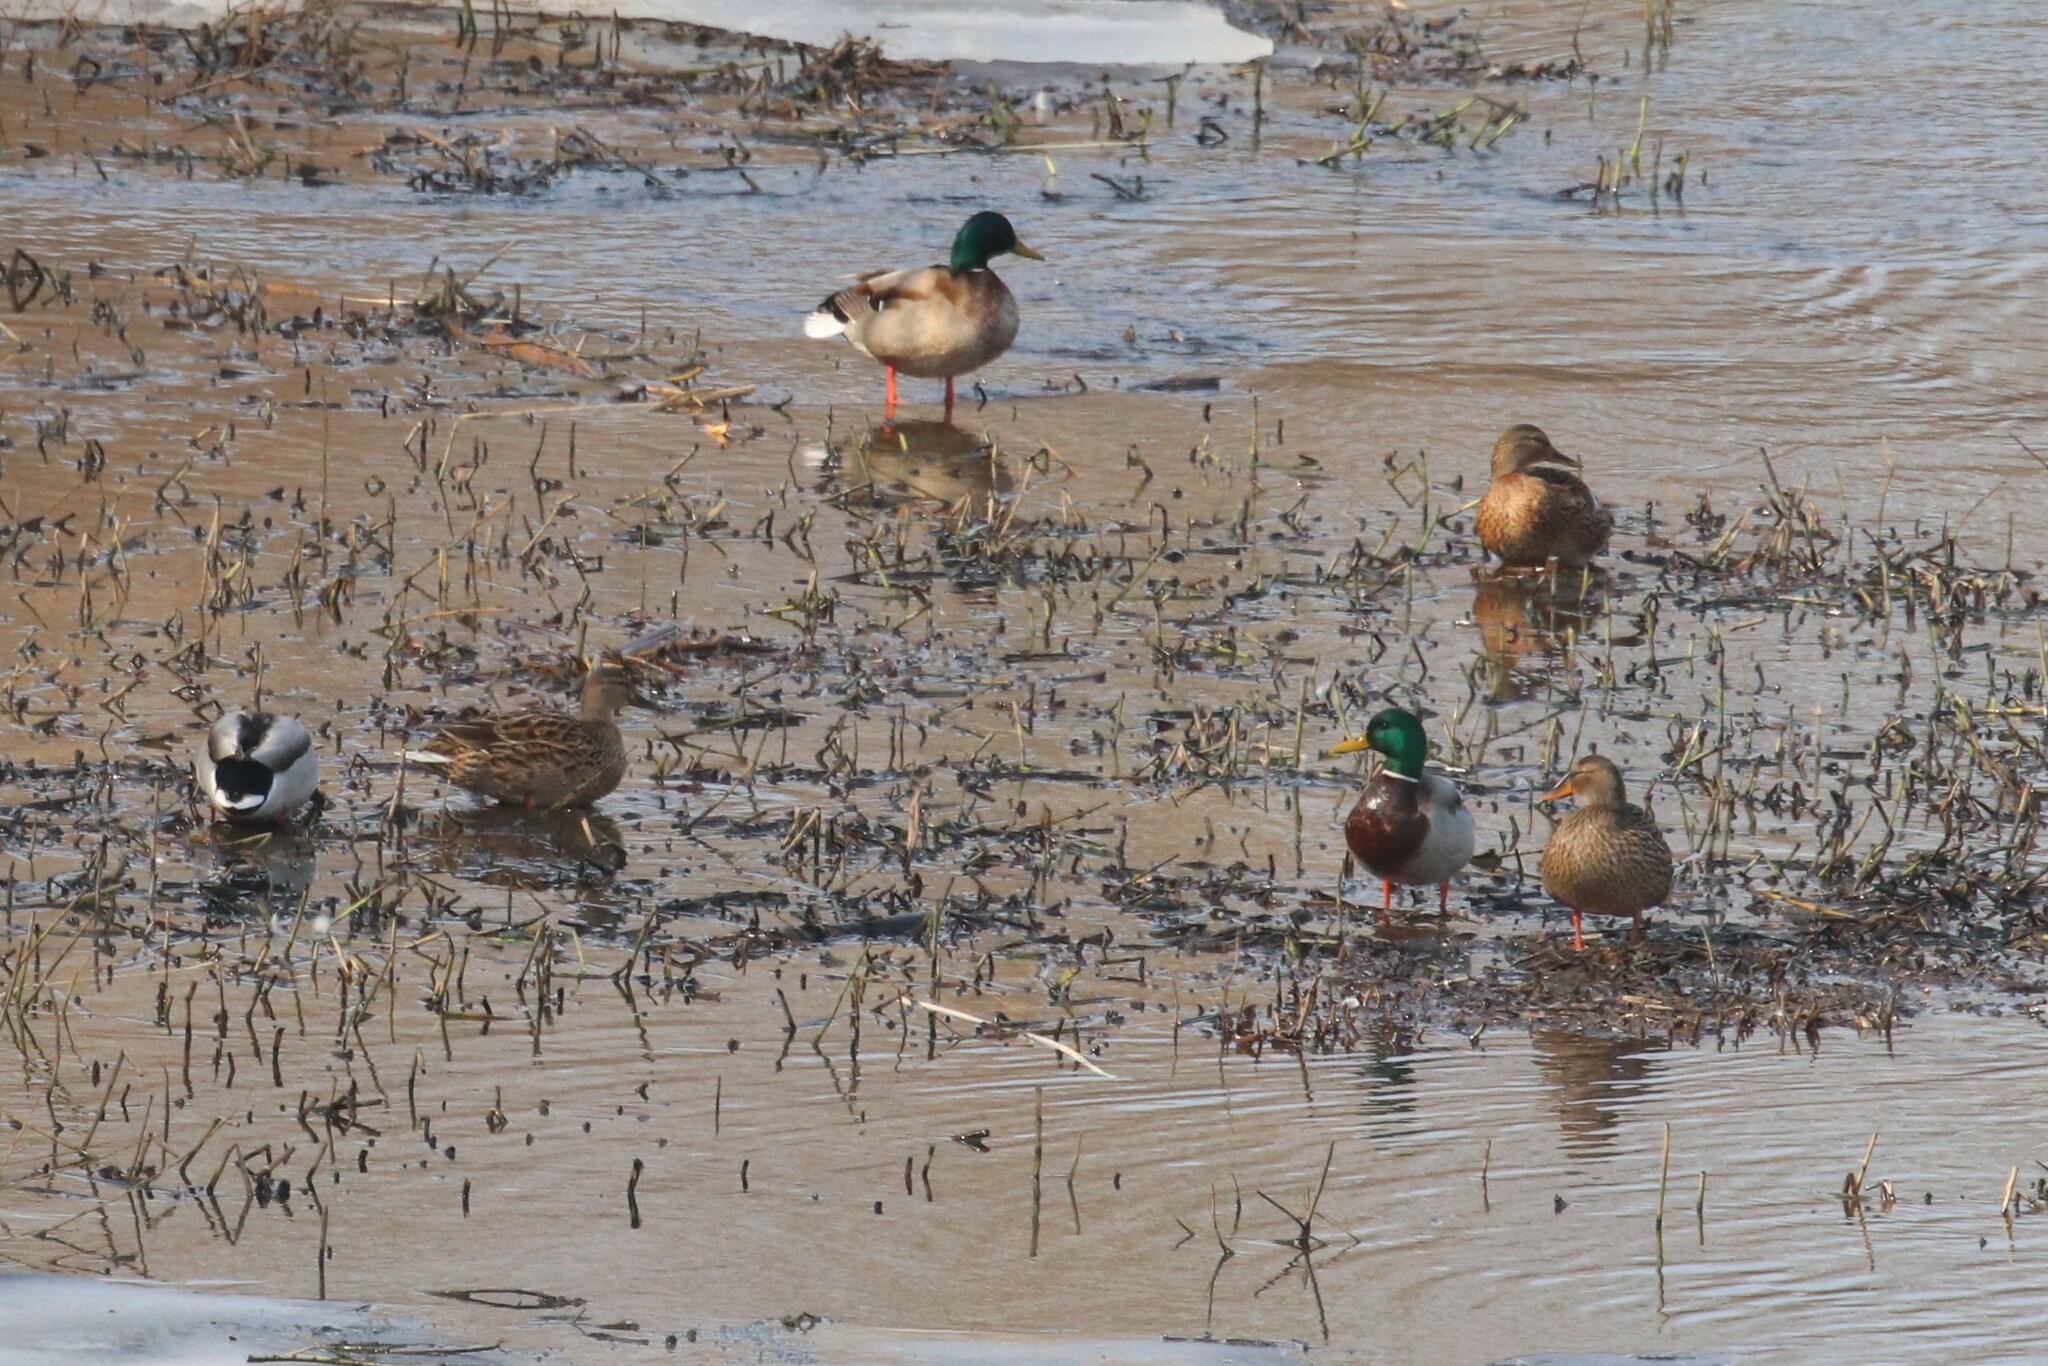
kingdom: Animalia
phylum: Chordata
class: Aves
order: Anseriformes
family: Anatidae
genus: Anas
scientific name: Anas platyrhynchos
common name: Mallard
